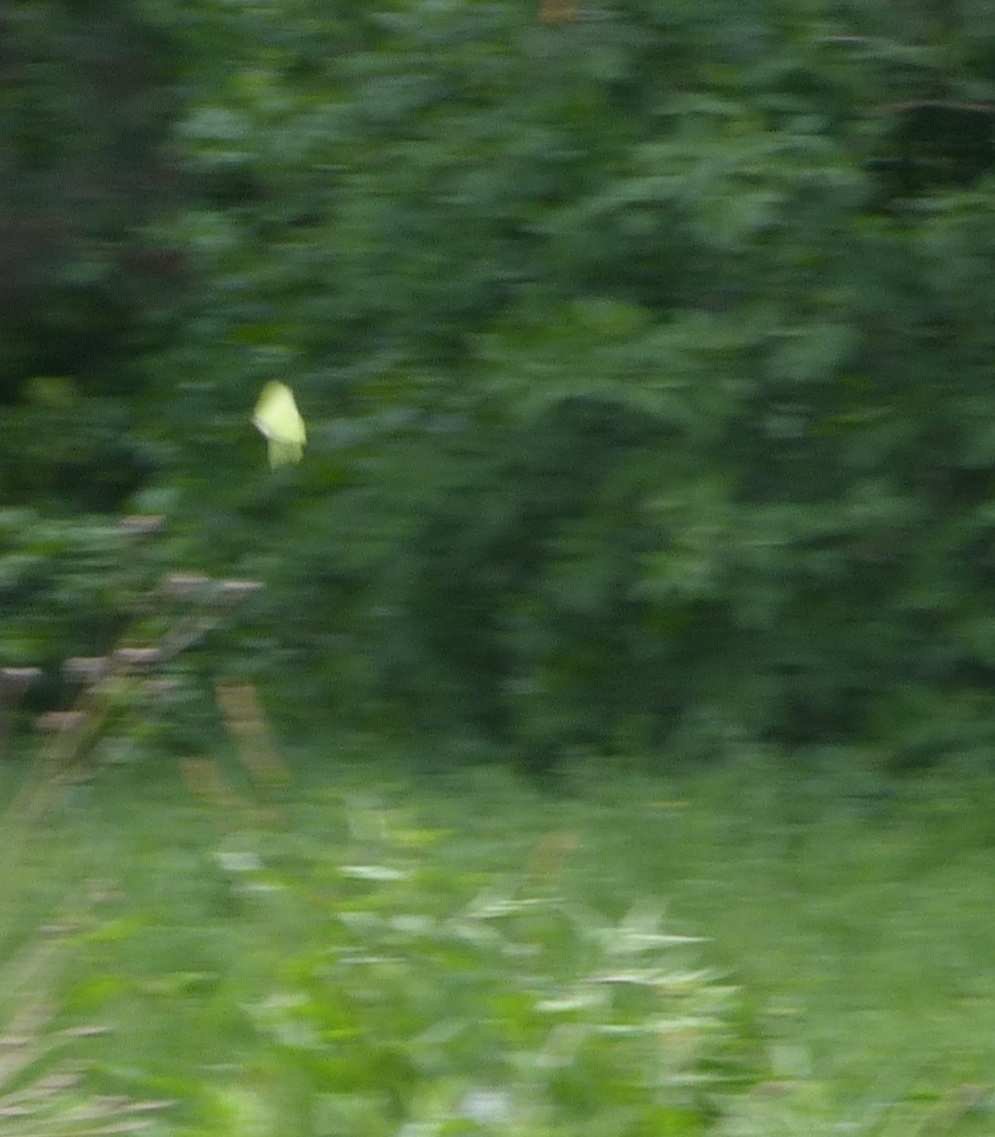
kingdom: Animalia
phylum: Arthropoda
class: Insecta
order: Lepidoptera
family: Pieridae
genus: Gonepteryx
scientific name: Gonepteryx rhamni
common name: Brimstone
